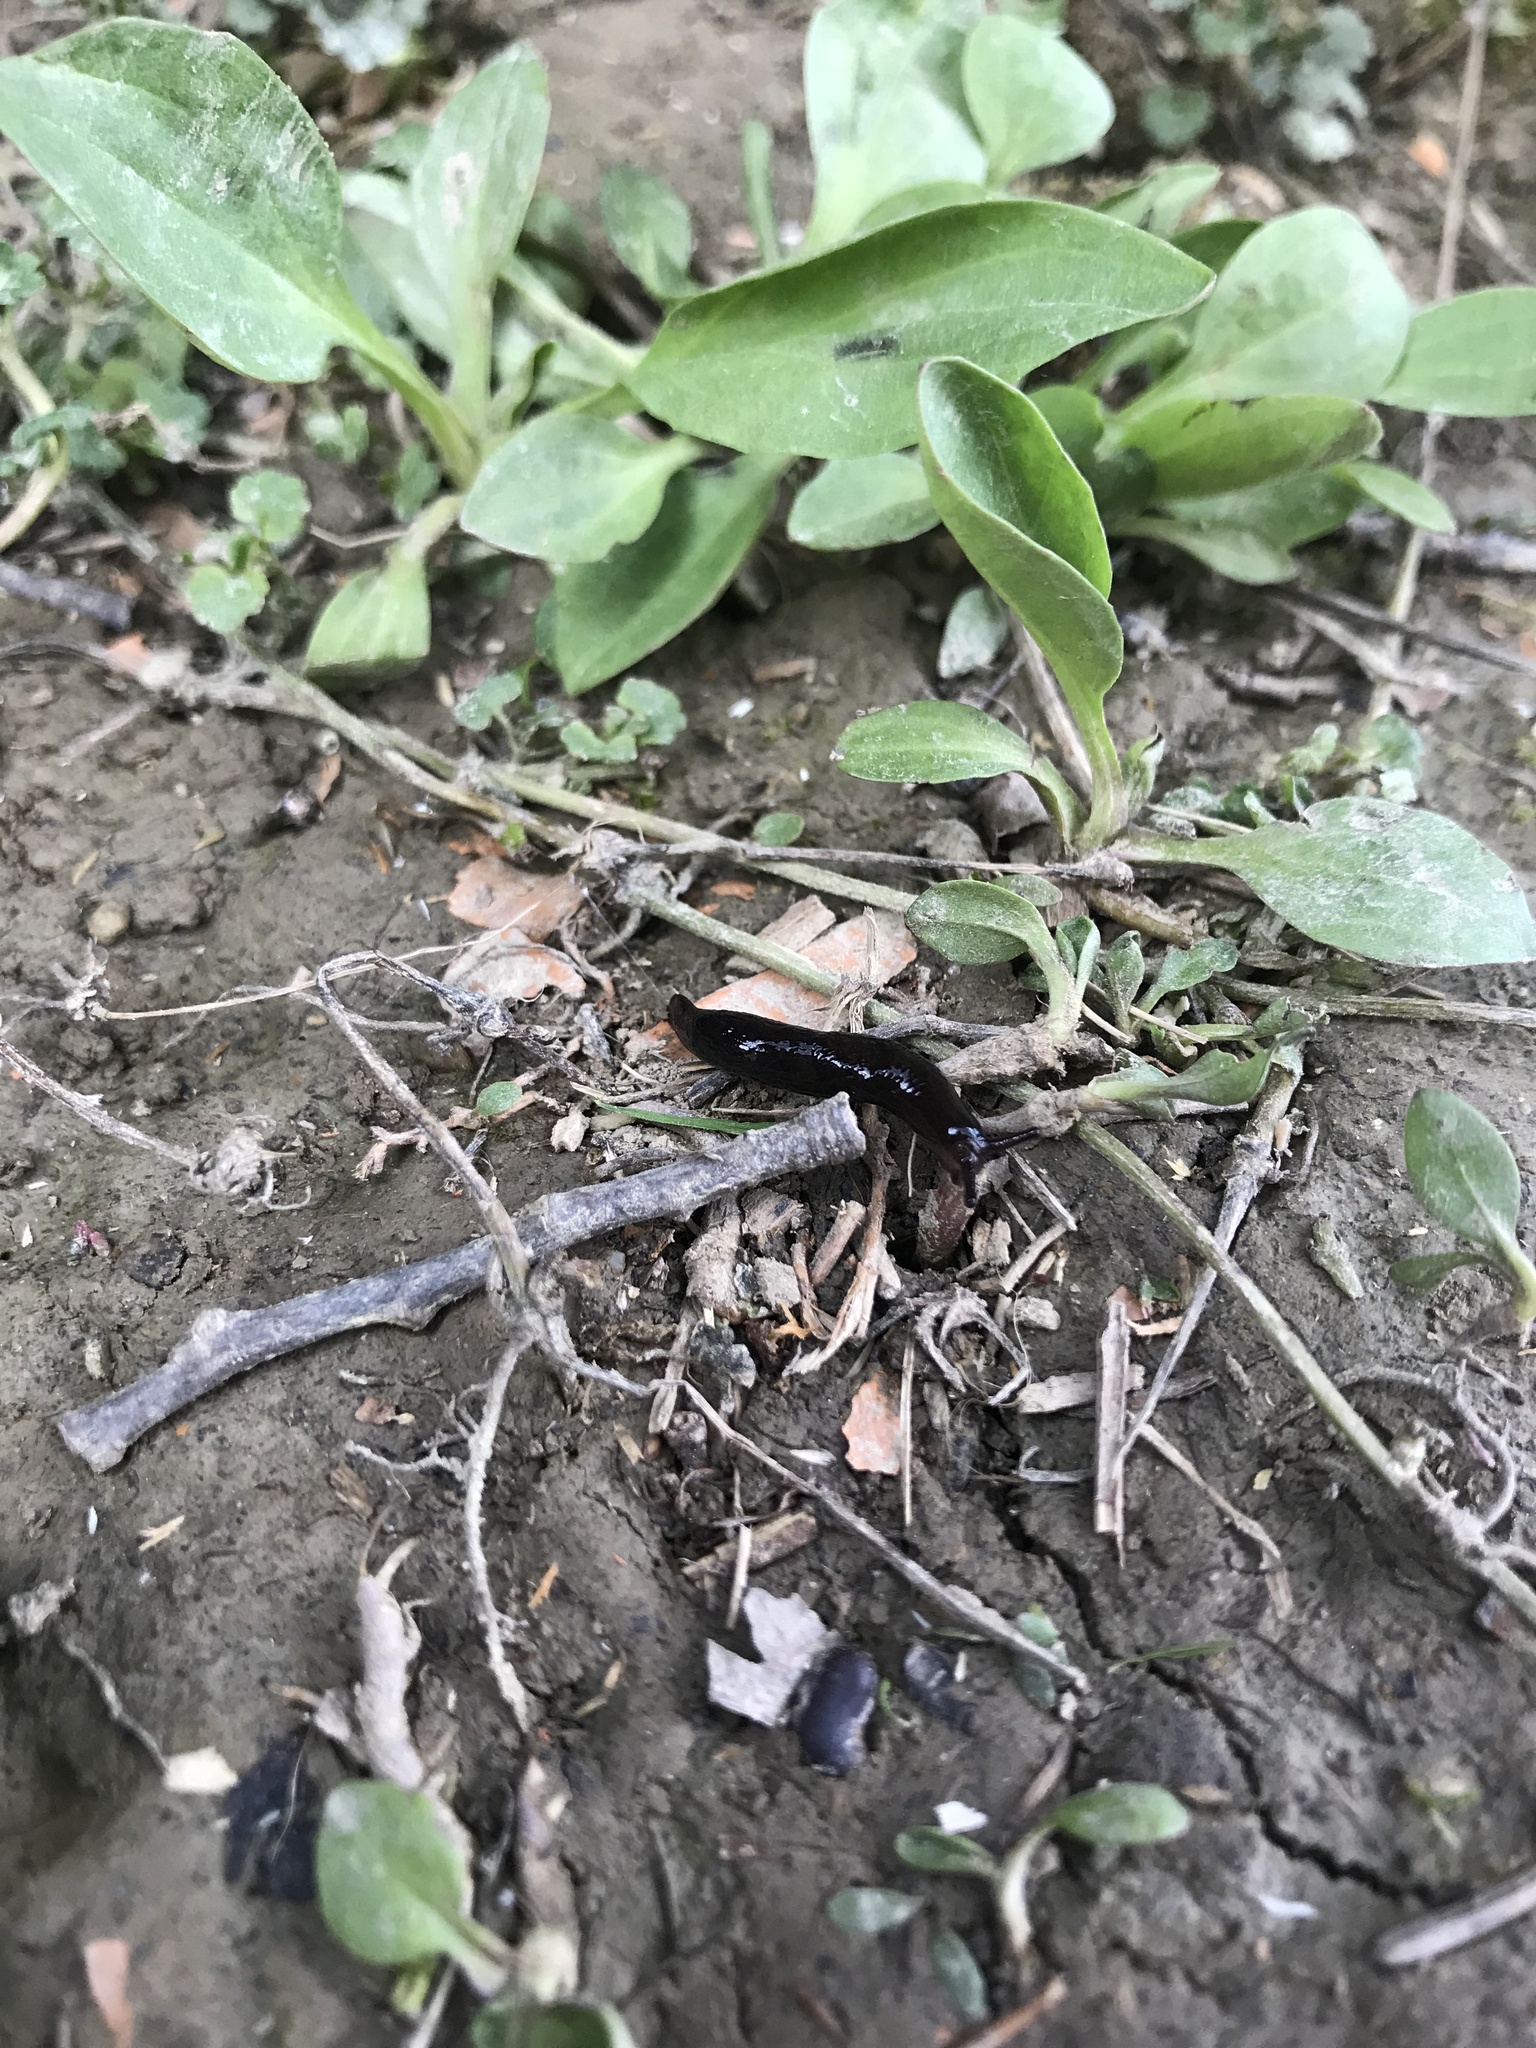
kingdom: Animalia
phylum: Mollusca
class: Gastropoda
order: Stylommatophora
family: Agriolimacidae
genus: Deroceras
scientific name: Deroceras laeve
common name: Marsh slug
